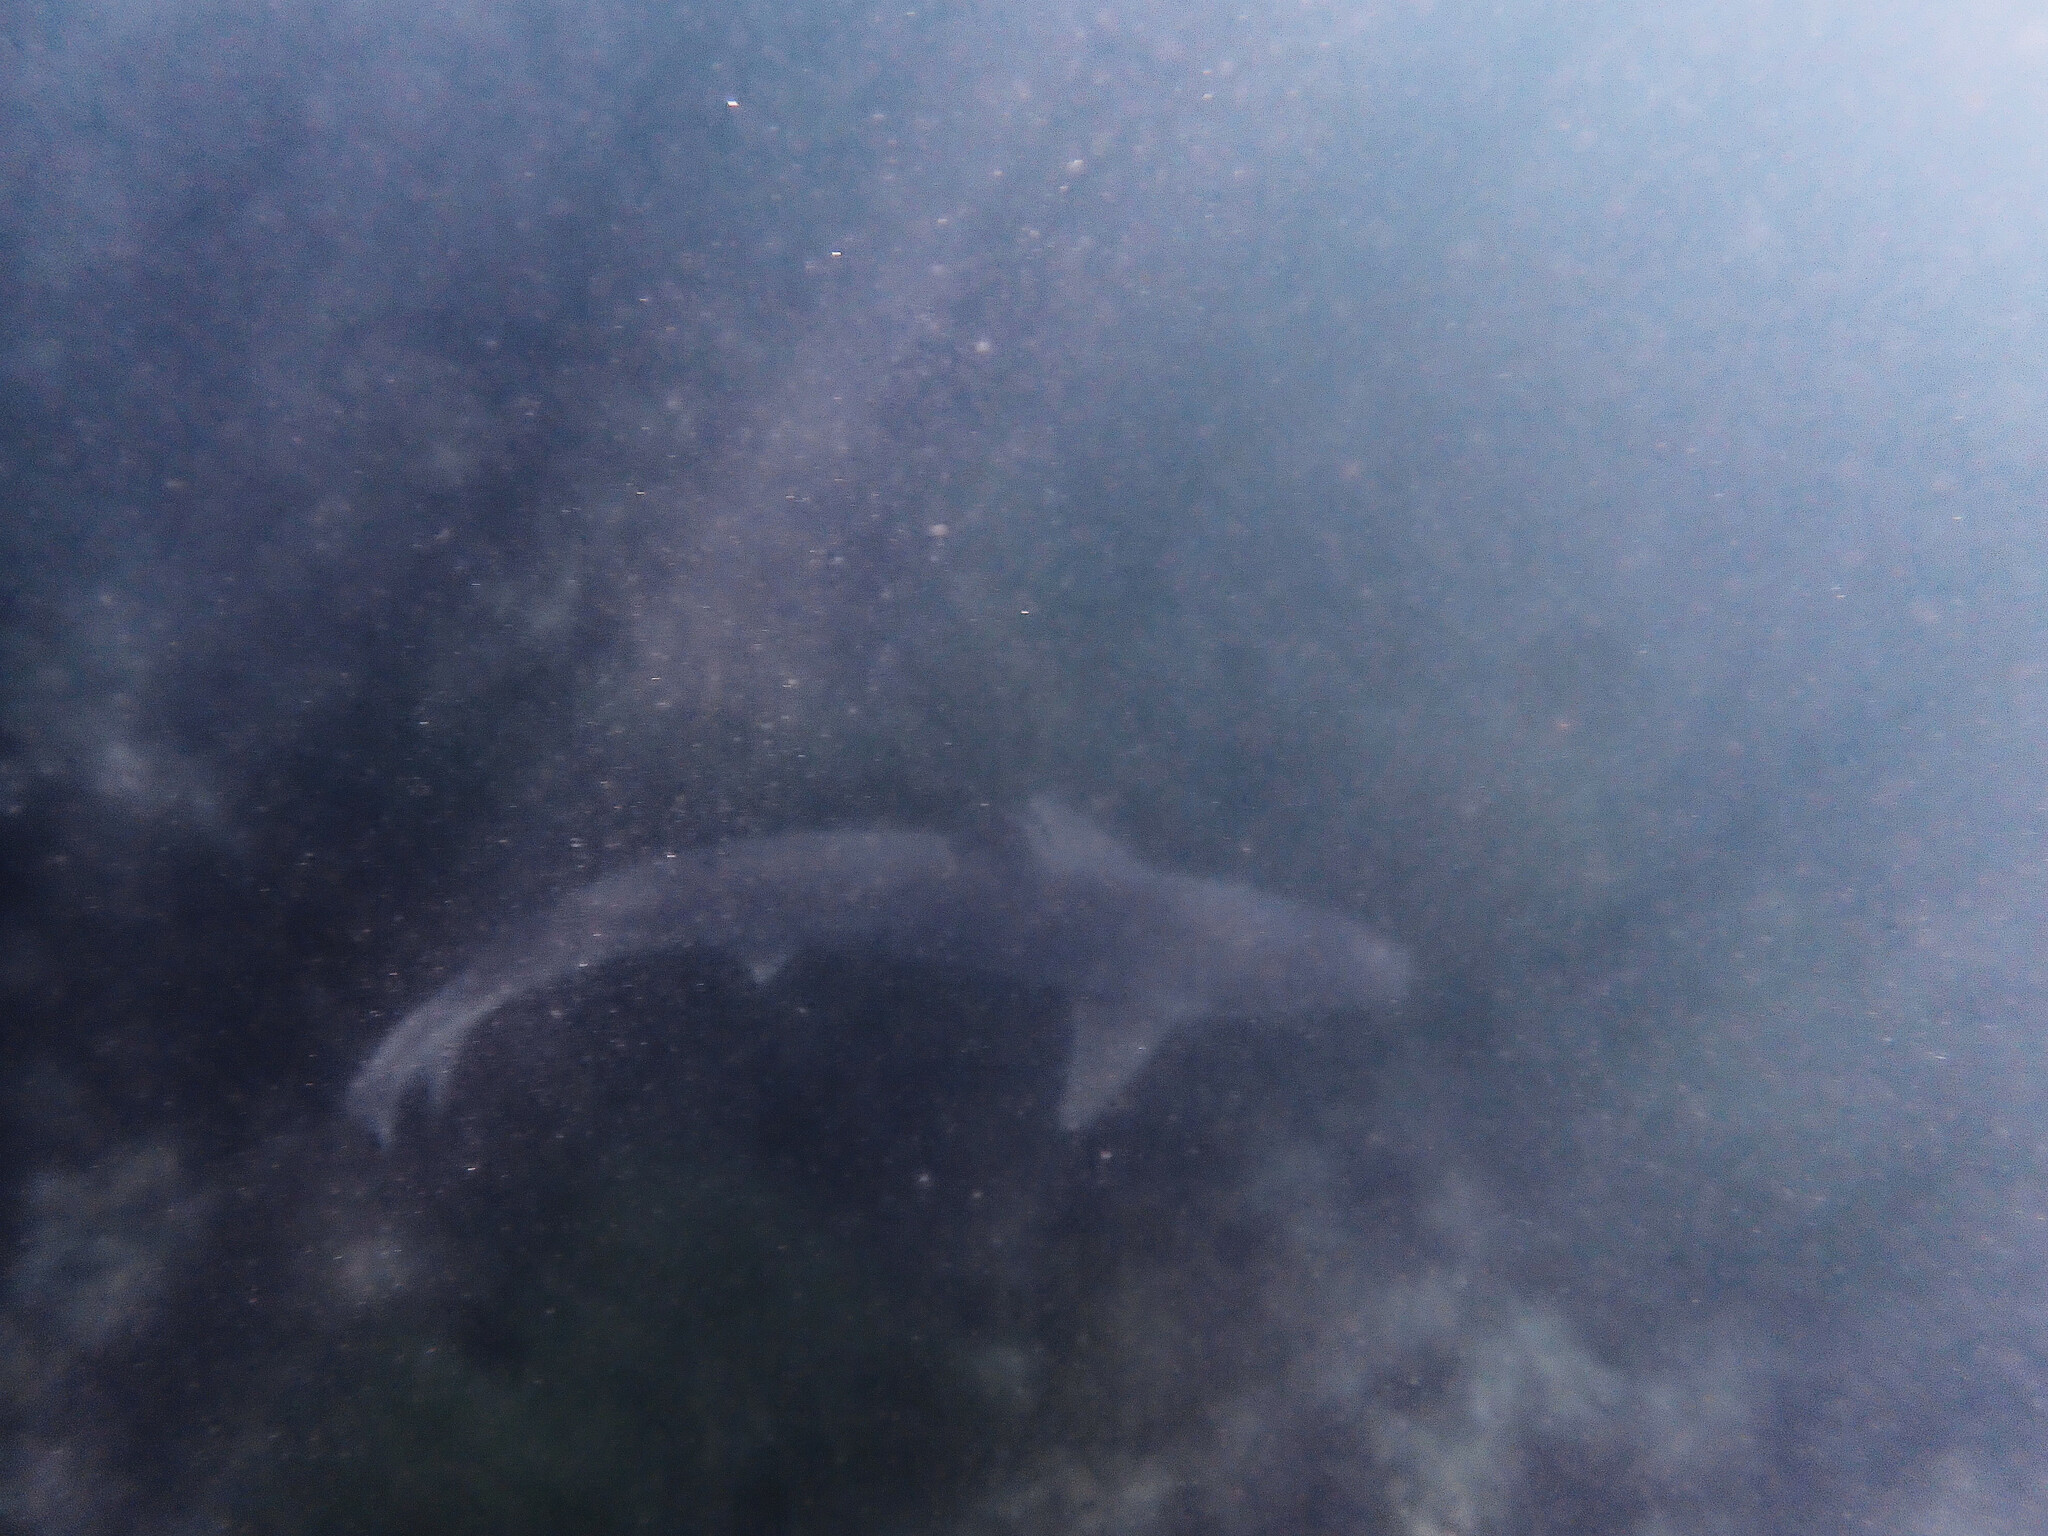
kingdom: Animalia
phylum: Chordata
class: Elasmobranchii
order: Carcharhiniformes
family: Triakidae
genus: Galeorhinus
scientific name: Galeorhinus galeus
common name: Tope
